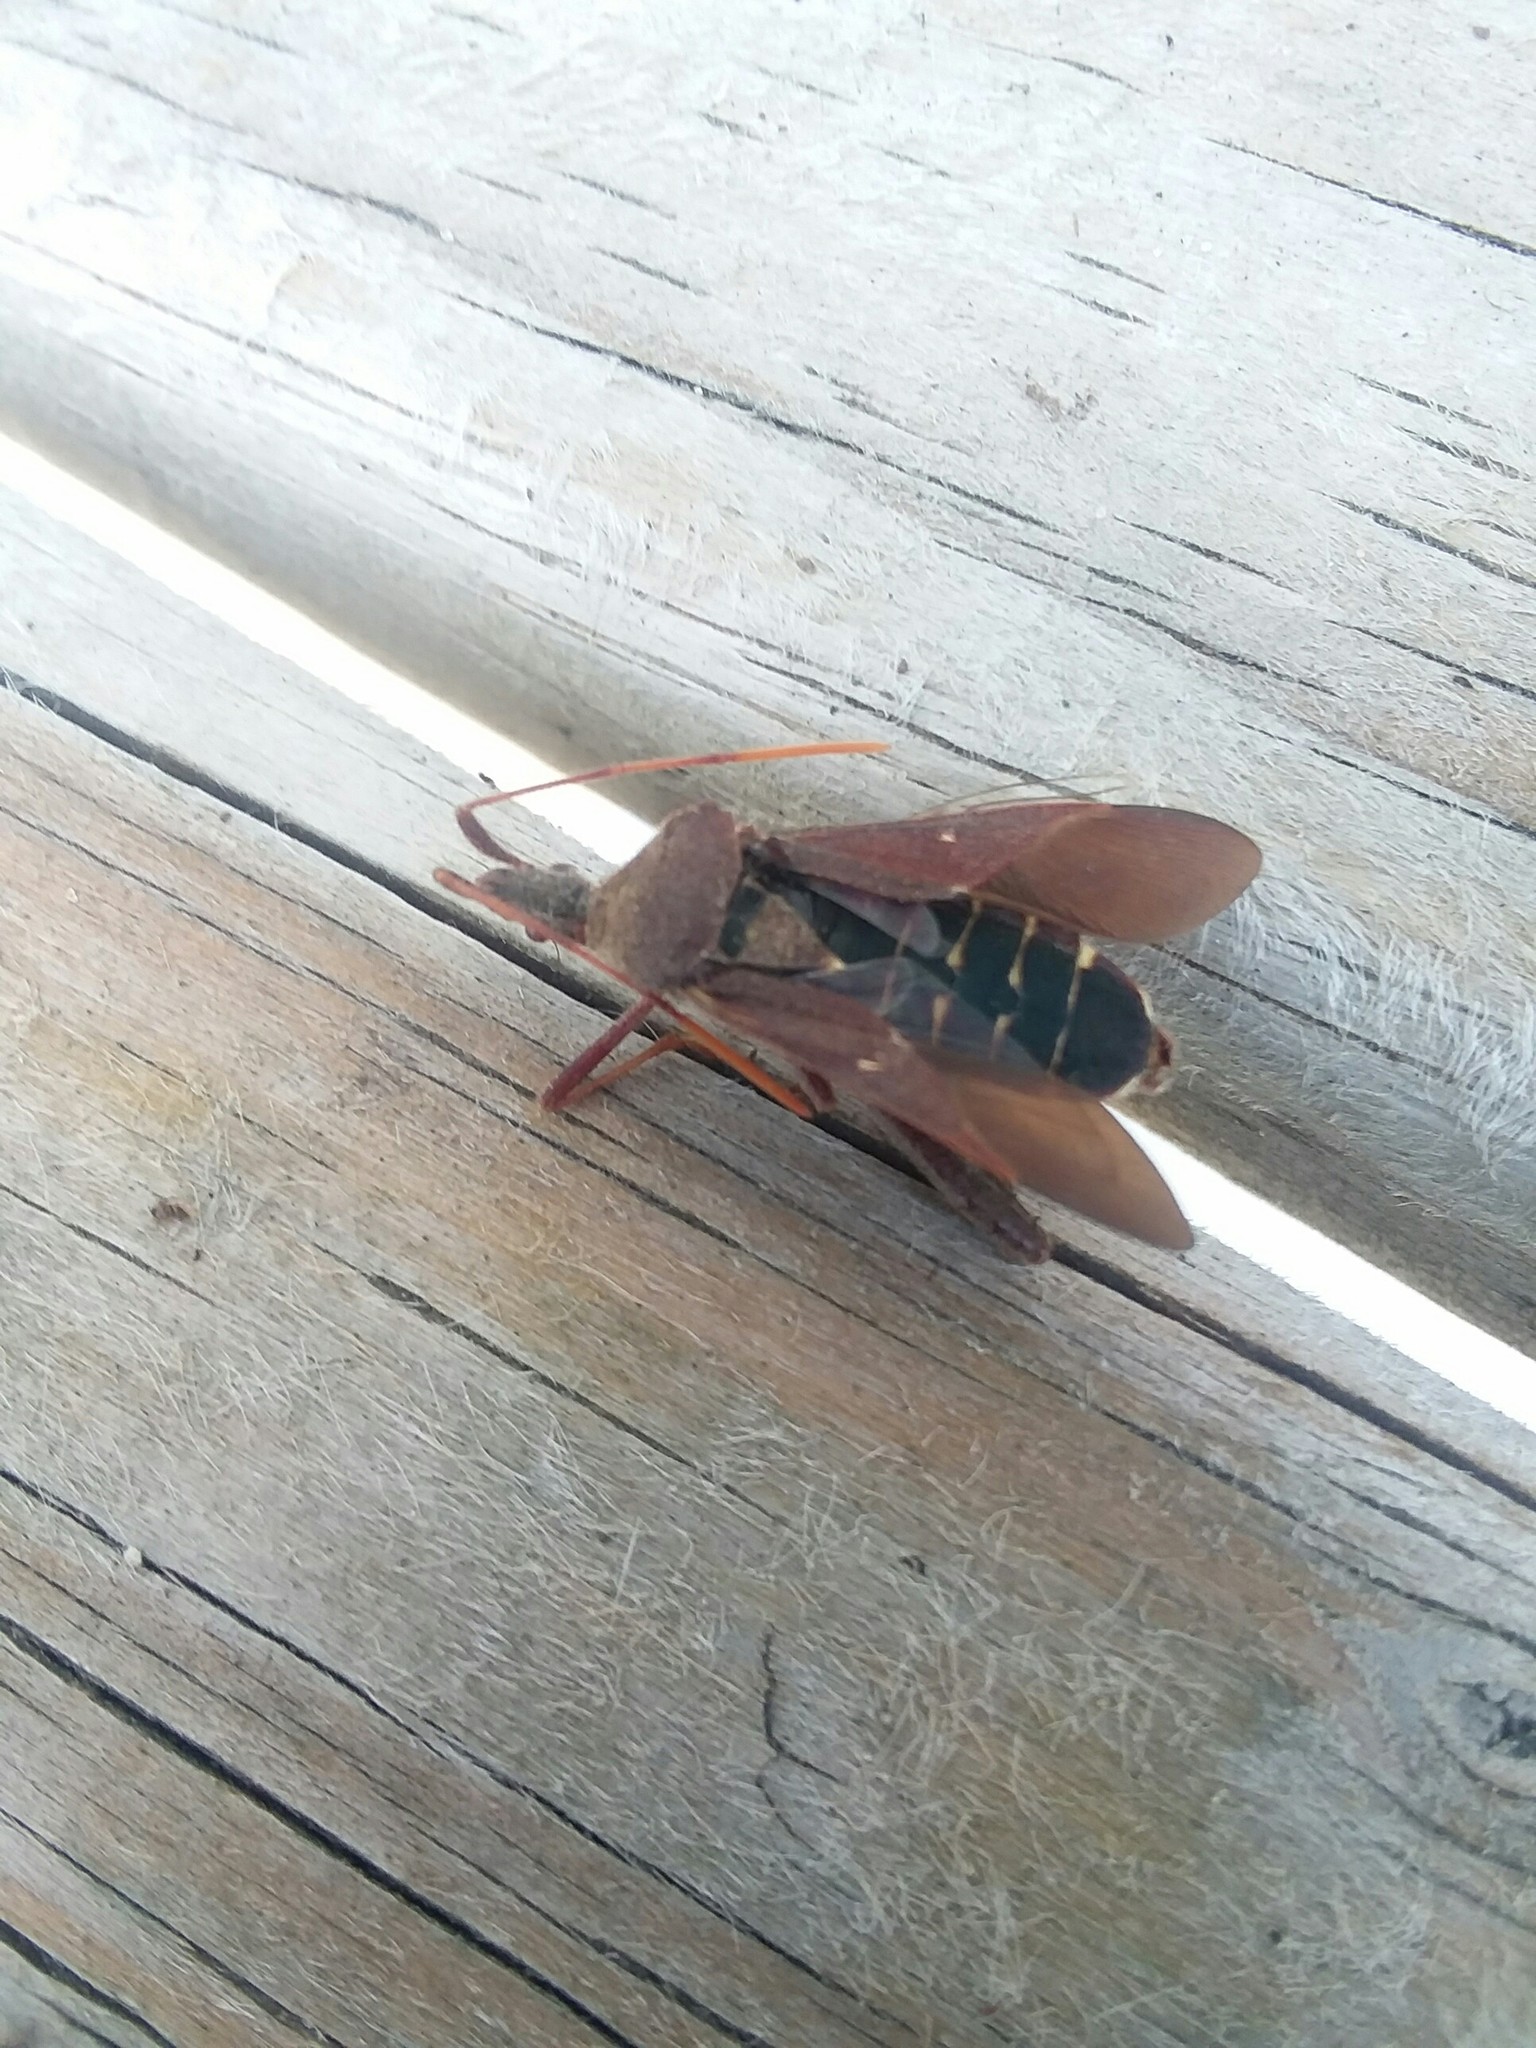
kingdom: Animalia
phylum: Arthropoda
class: Insecta
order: Hemiptera
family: Coreidae
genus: Leptoglossus
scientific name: Leptoglossus oppositus
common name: Northern leaf-footed bug
